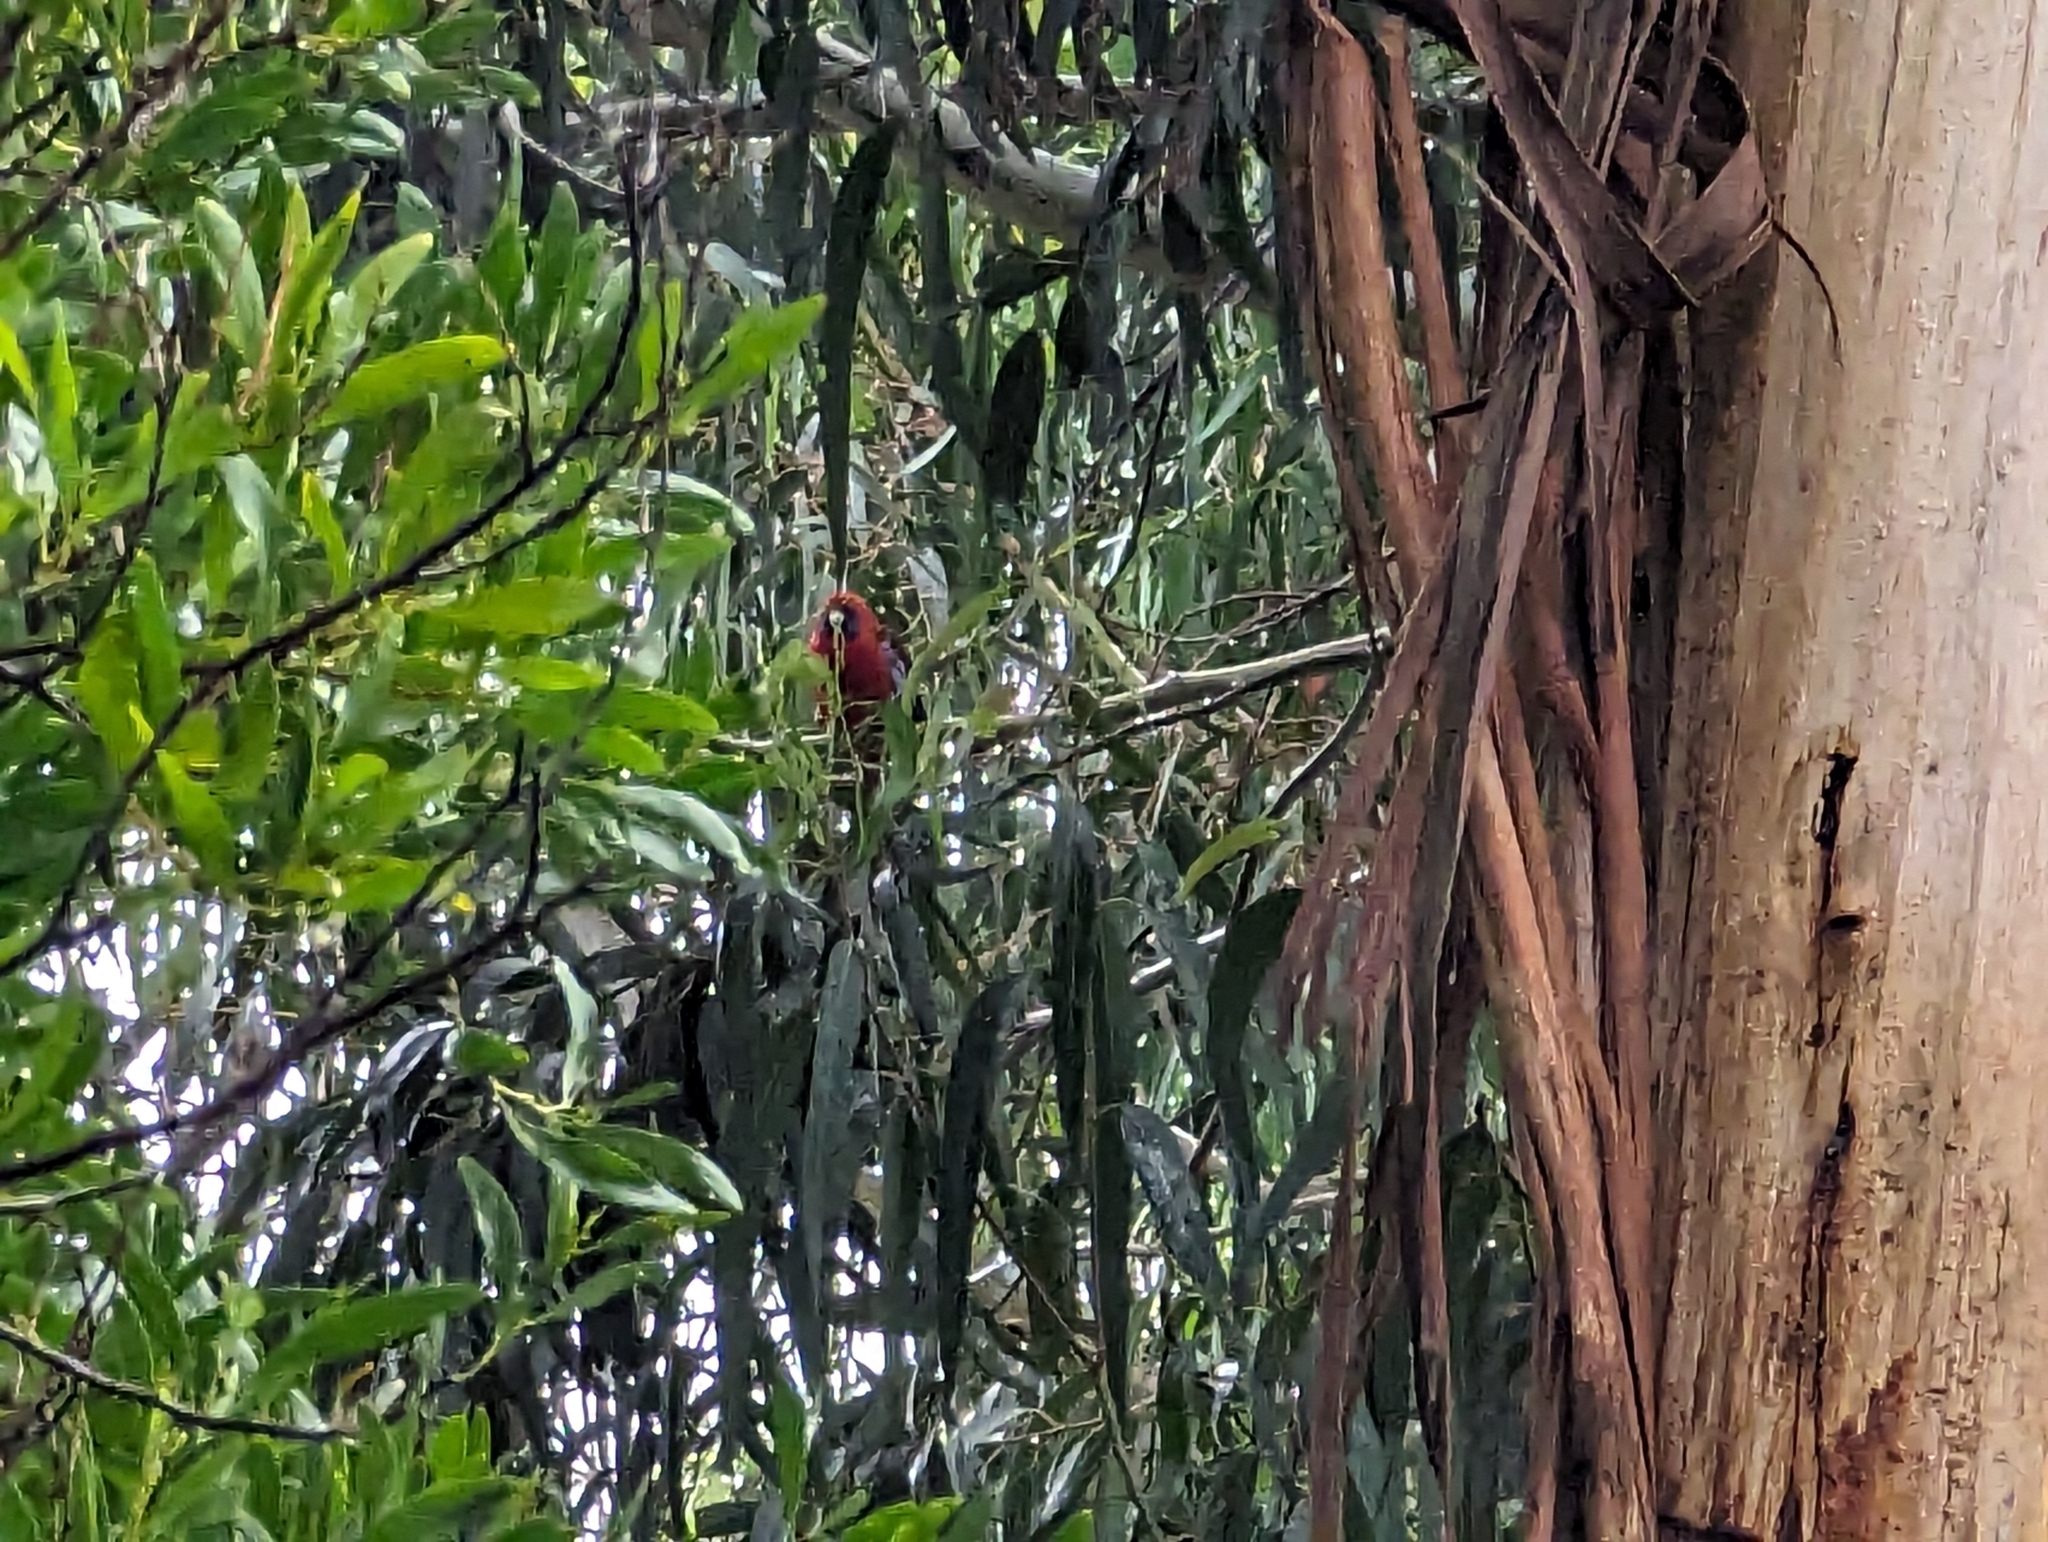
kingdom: Animalia
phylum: Chordata
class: Aves
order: Psittaciformes
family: Psittacidae
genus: Platycercus
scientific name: Platycercus elegans
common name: Crimson rosella
